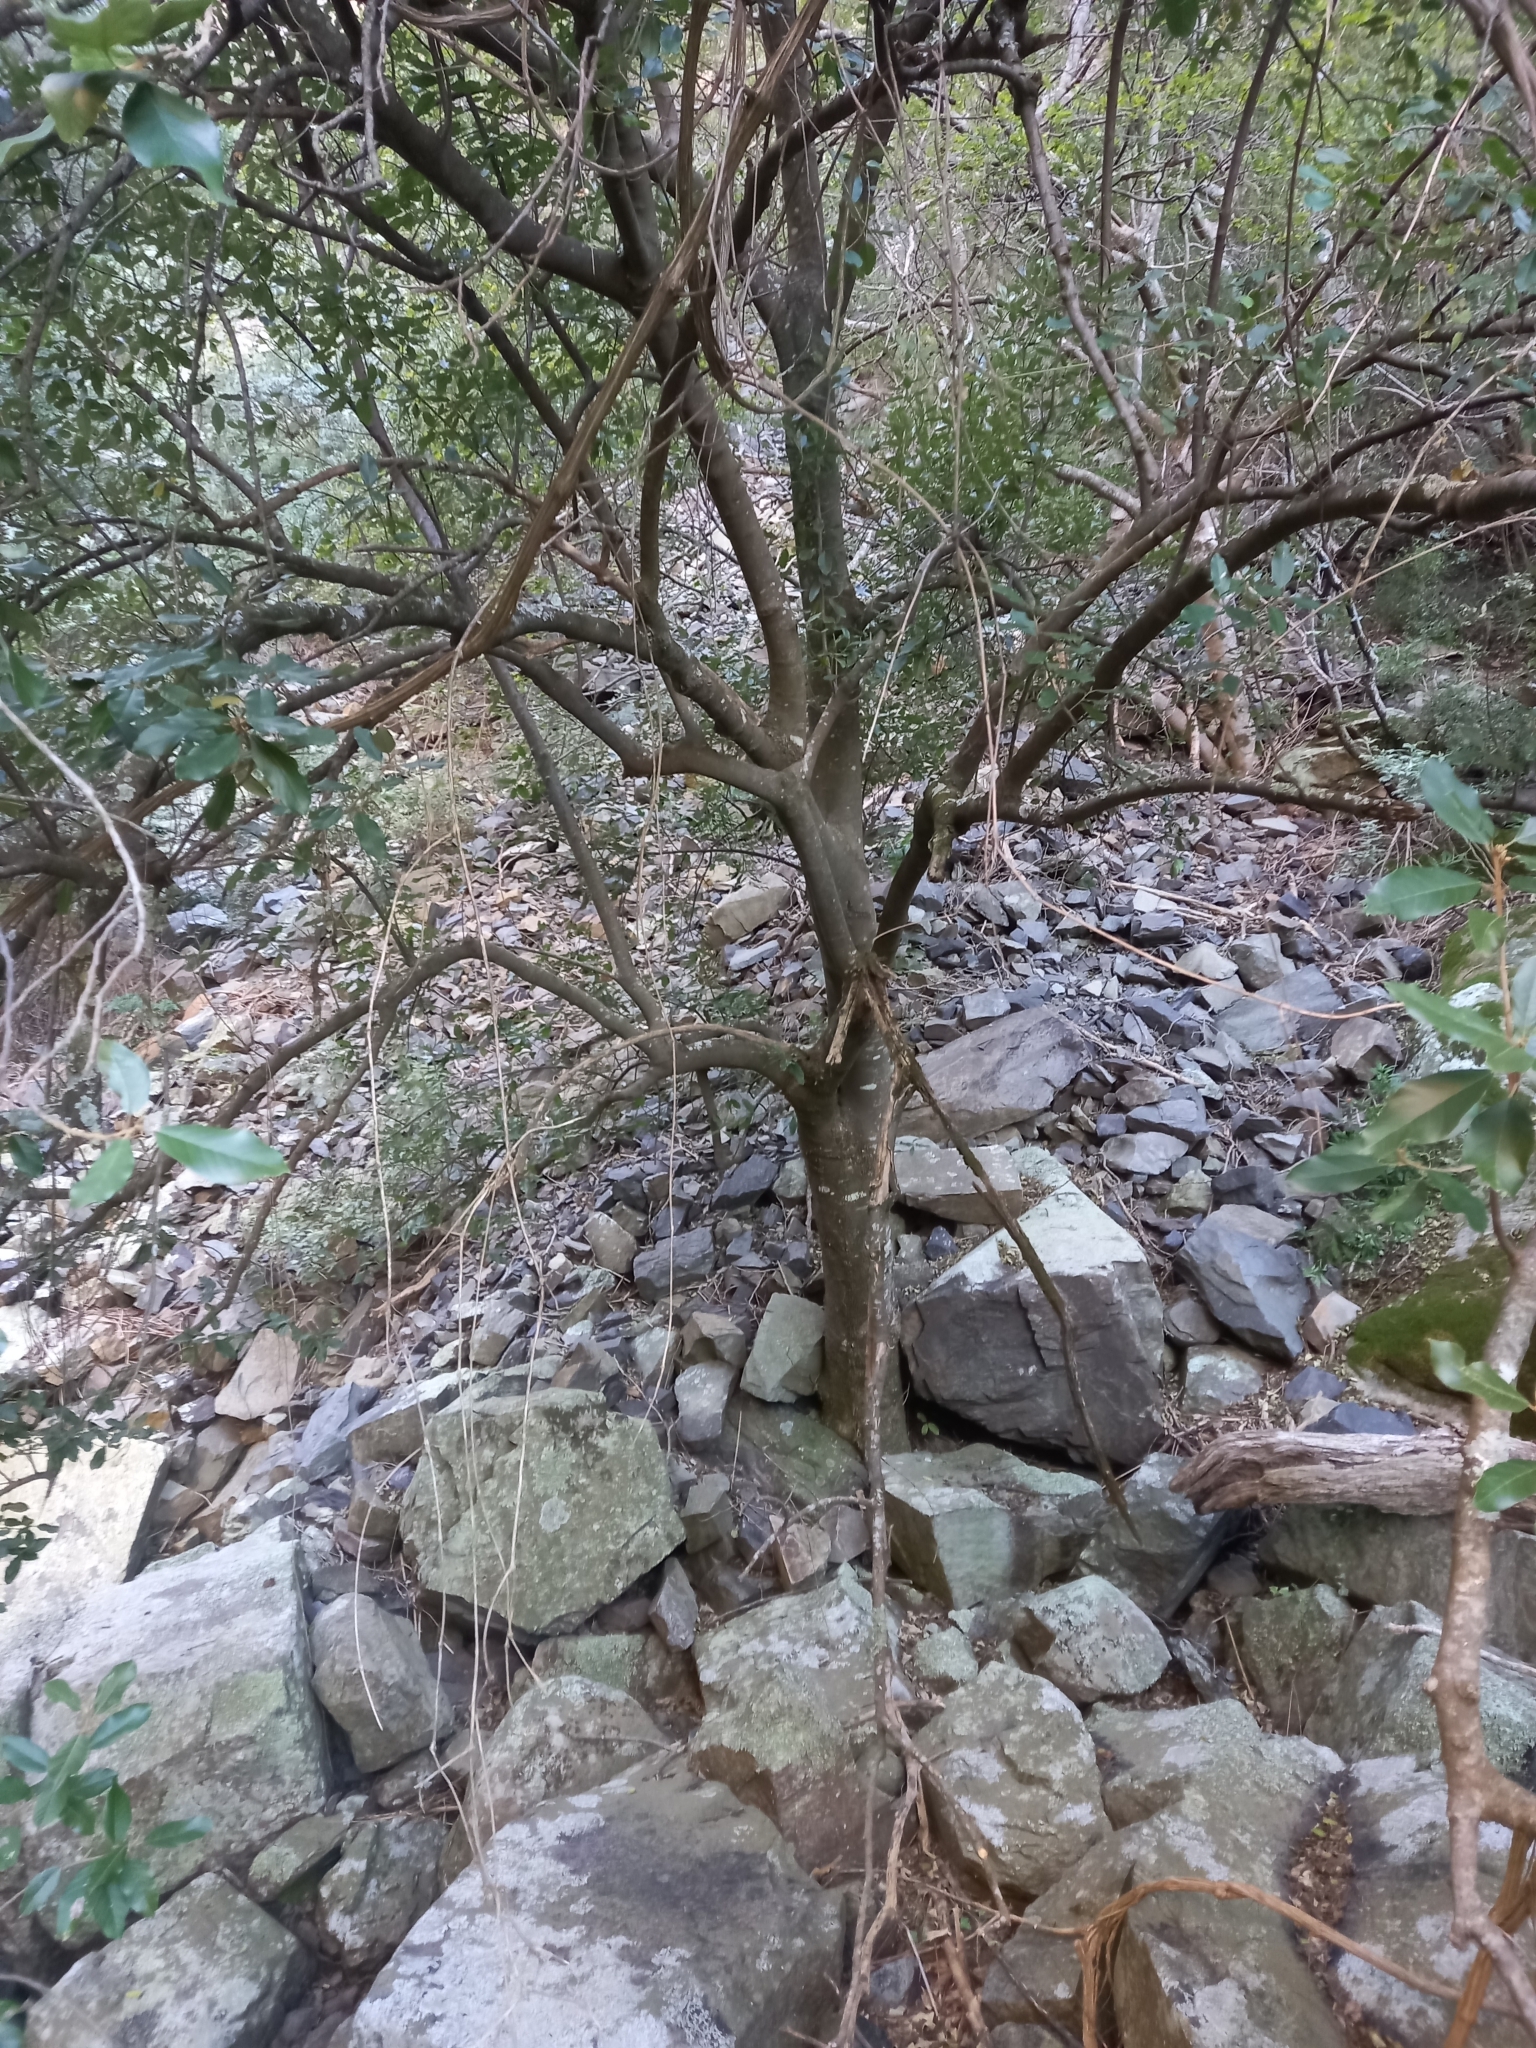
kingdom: Plantae
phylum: Tracheophyta
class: Magnoliopsida
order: Malpighiales
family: Achariaceae
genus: Kiggelaria
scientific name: Kiggelaria africana
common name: Wild peach
